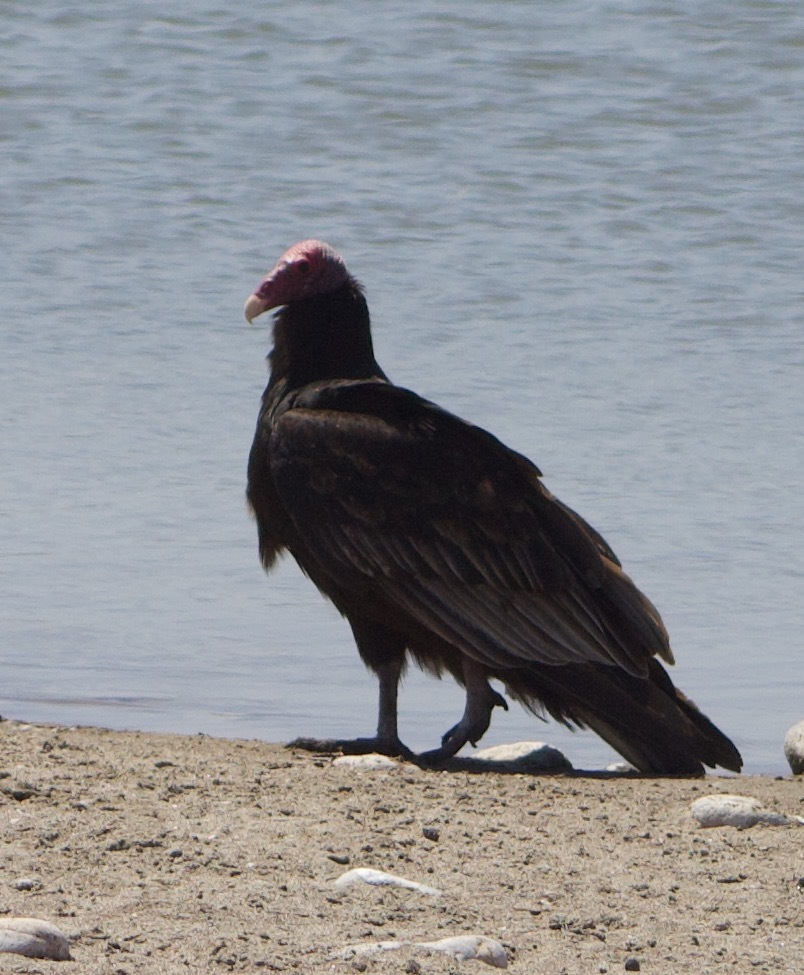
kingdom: Animalia
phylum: Chordata
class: Aves
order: Accipitriformes
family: Cathartidae
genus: Cathartes
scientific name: Cathartes aura
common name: Turkey vulture
